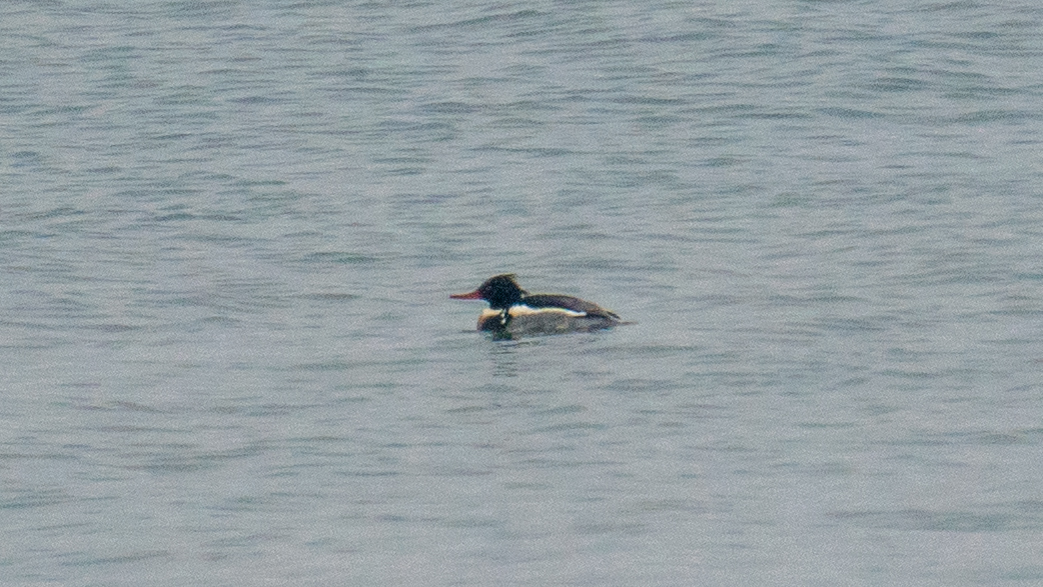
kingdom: Animalia
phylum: Chordata
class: Aves
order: Anseriformes
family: Anatidae
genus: Mergus
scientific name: Mergus serrator
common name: Red-breasted merganser
